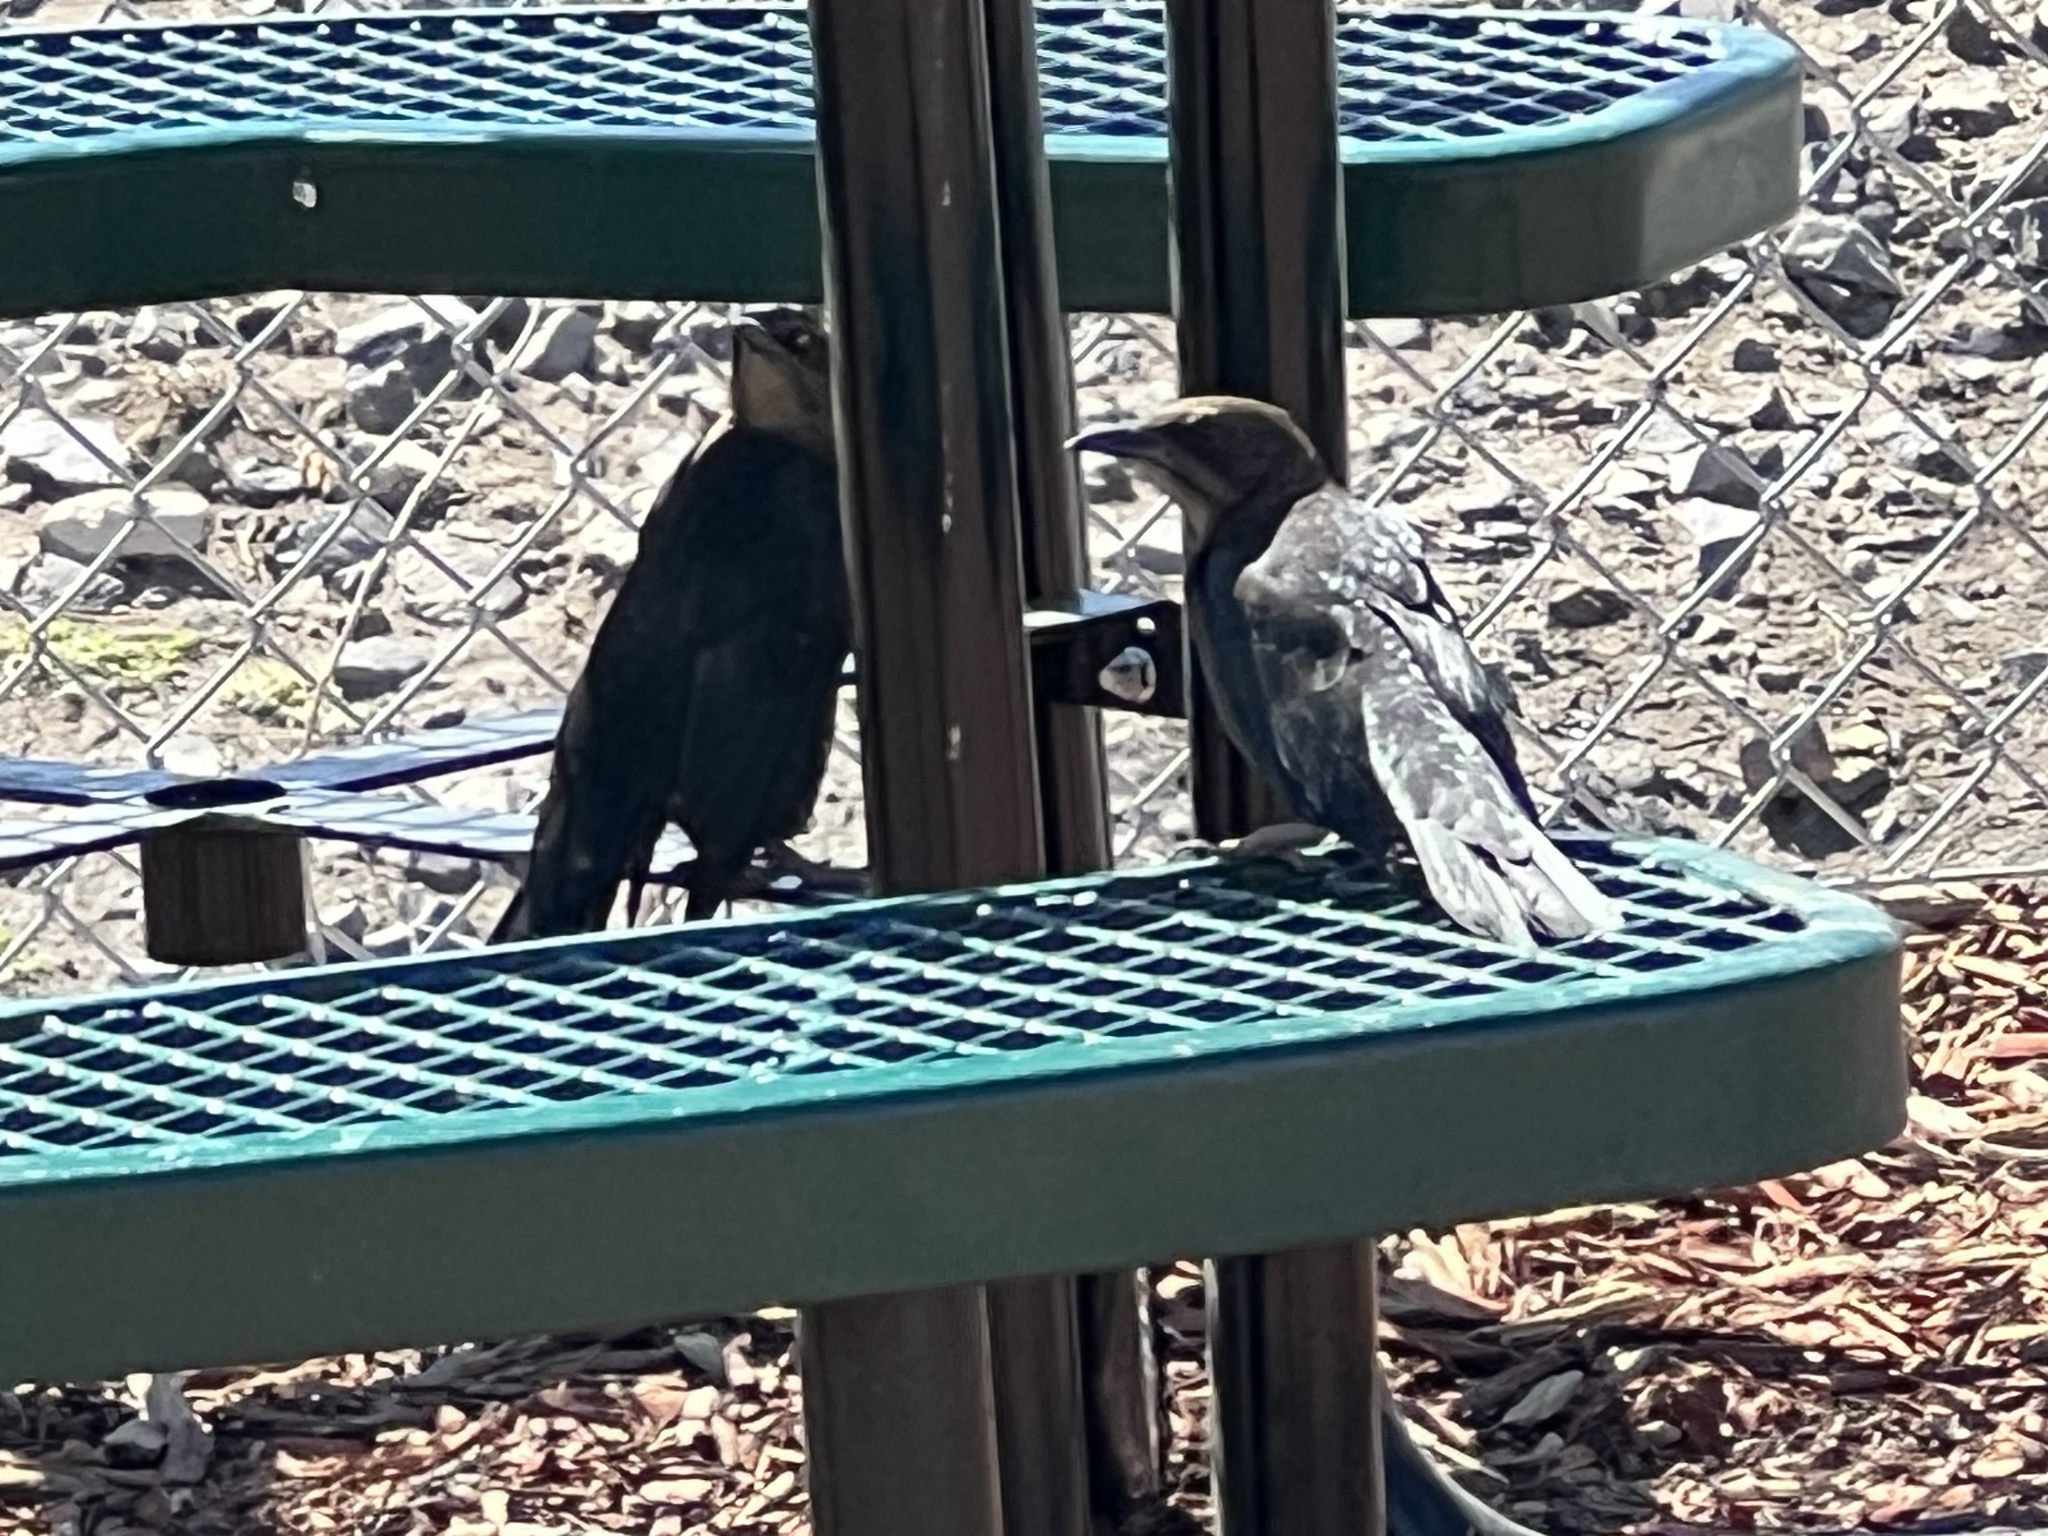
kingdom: Animalia
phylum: Chordata
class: Aves
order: Passeriformes
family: Icteridae
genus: Quiscalus
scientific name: Quiscalus mexicanus
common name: Great-tailed grackle
